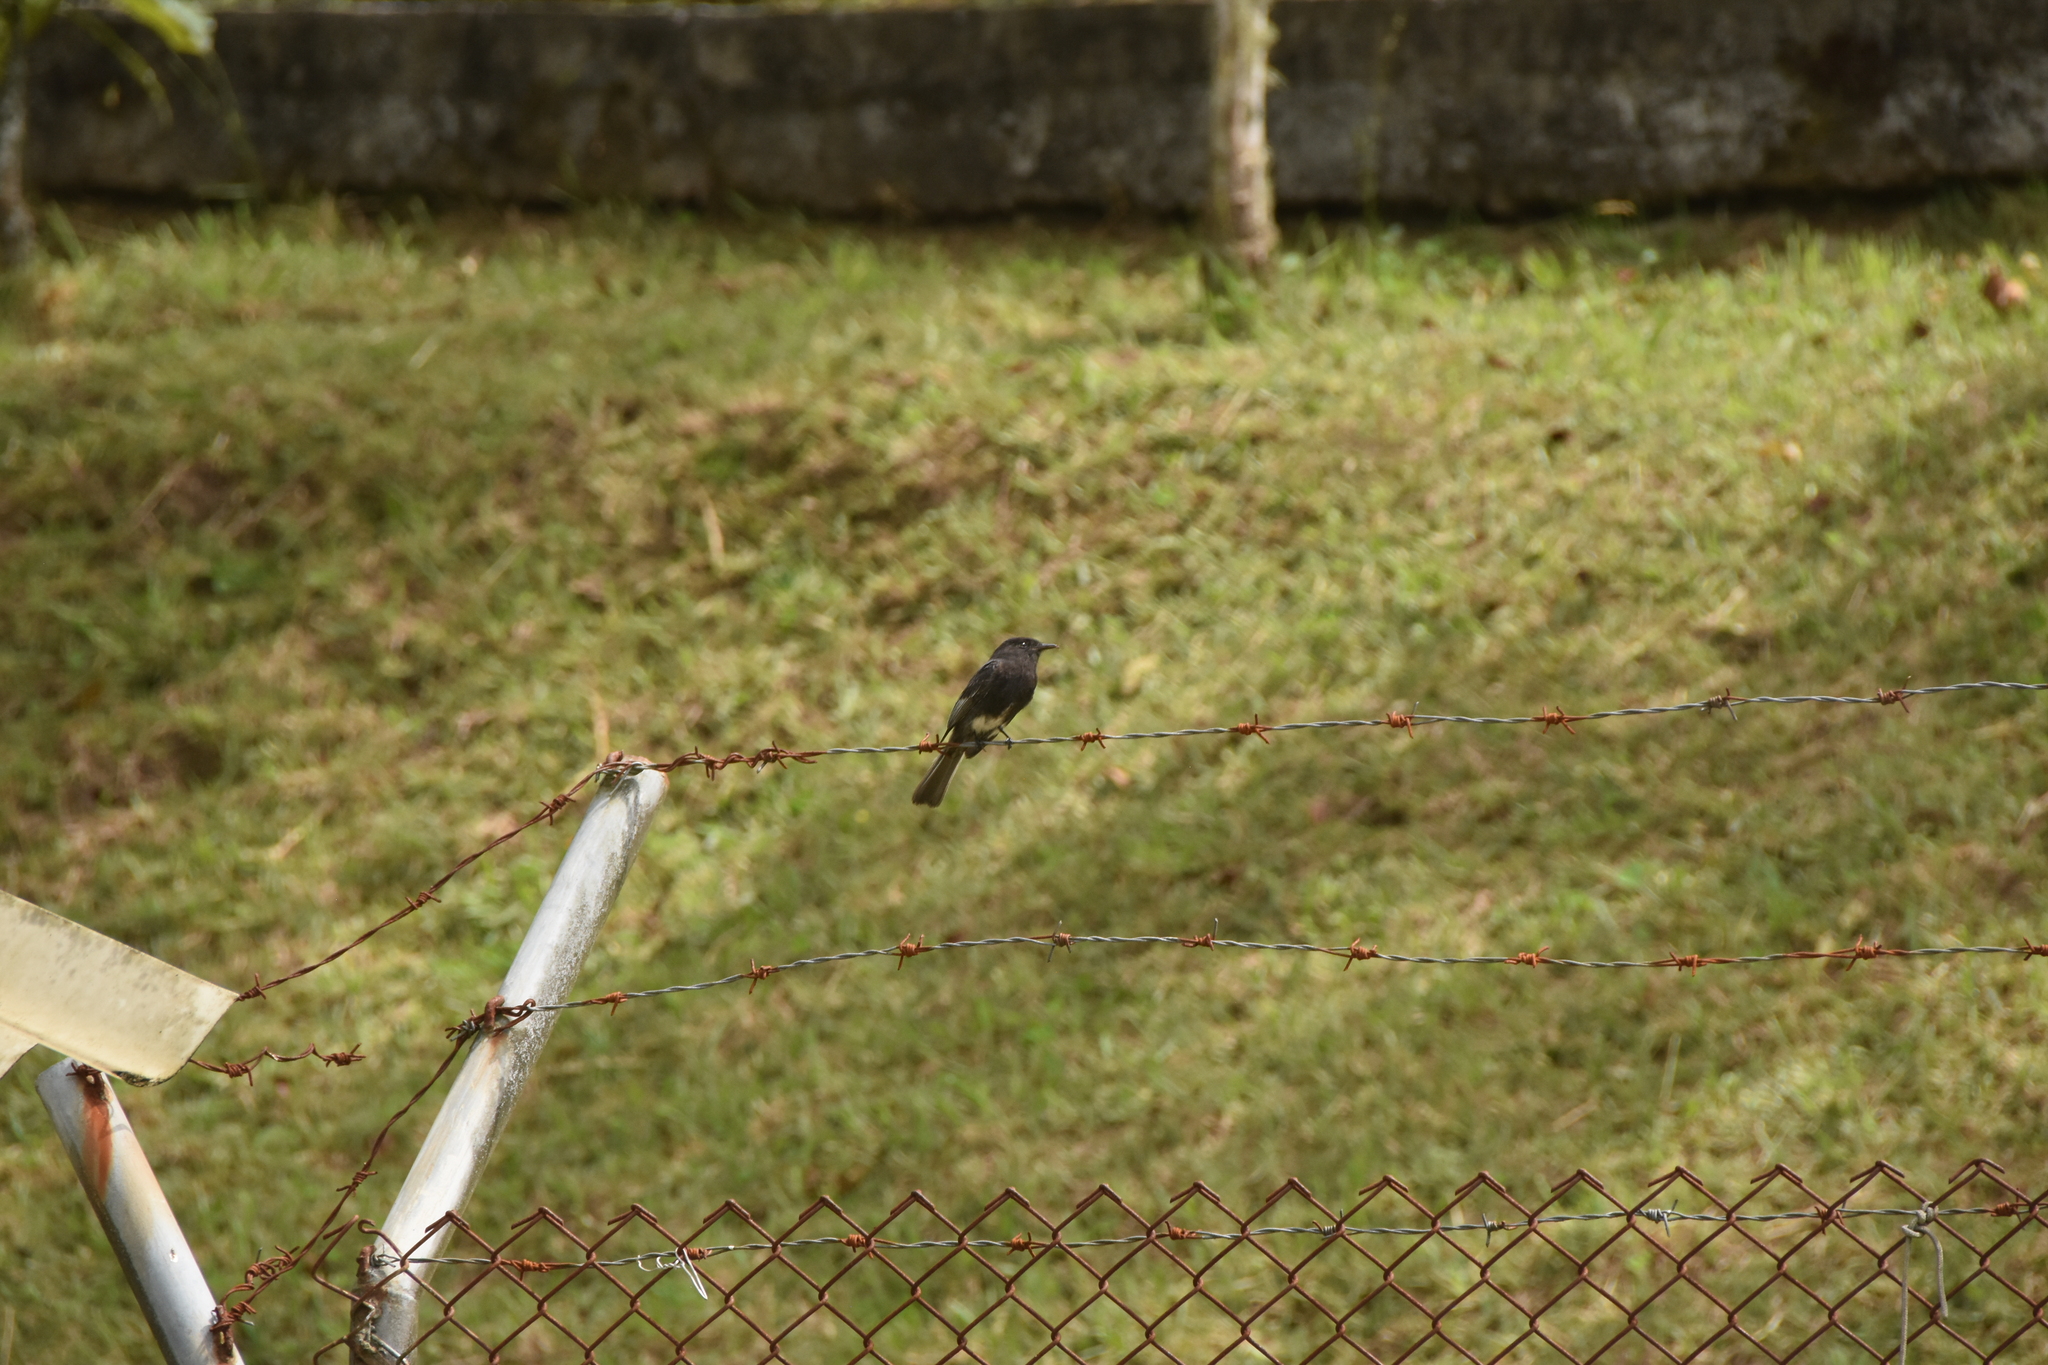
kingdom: Animalia
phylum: Chordata
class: Aves
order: Passeriformes
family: Tyrannidae
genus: Sayornis
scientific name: Sayornis nigricans
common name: Black phoebe
